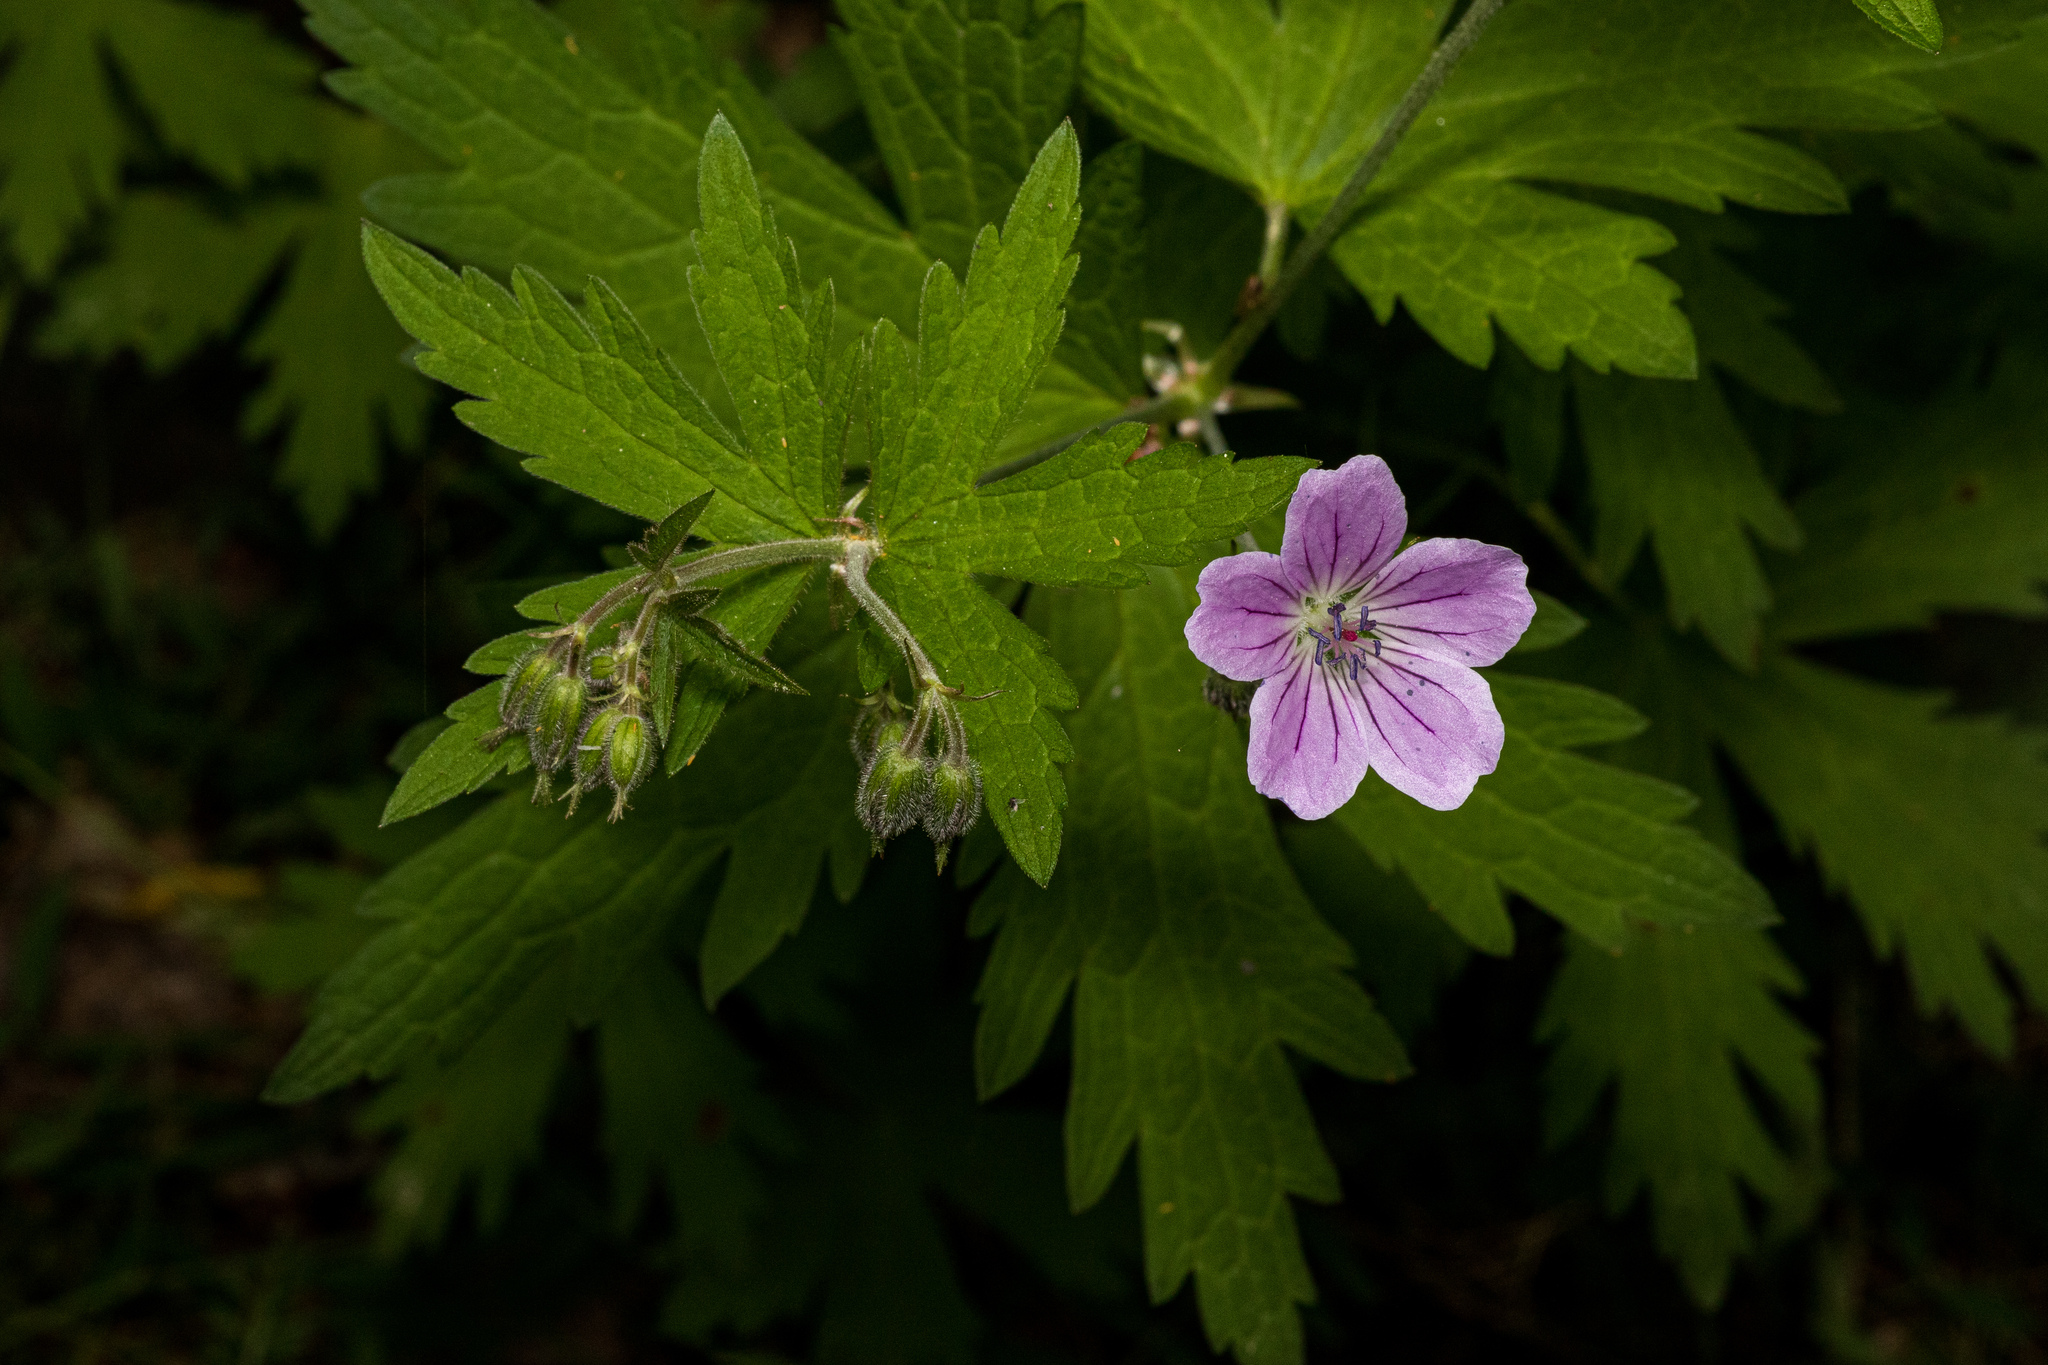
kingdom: Plantae
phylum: Tracheophyta
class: Magnoliopsida
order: Geraniales
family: Geraniaceae
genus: Geranium
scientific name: Geranium sylvaticum
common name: Wood crane's-bill
